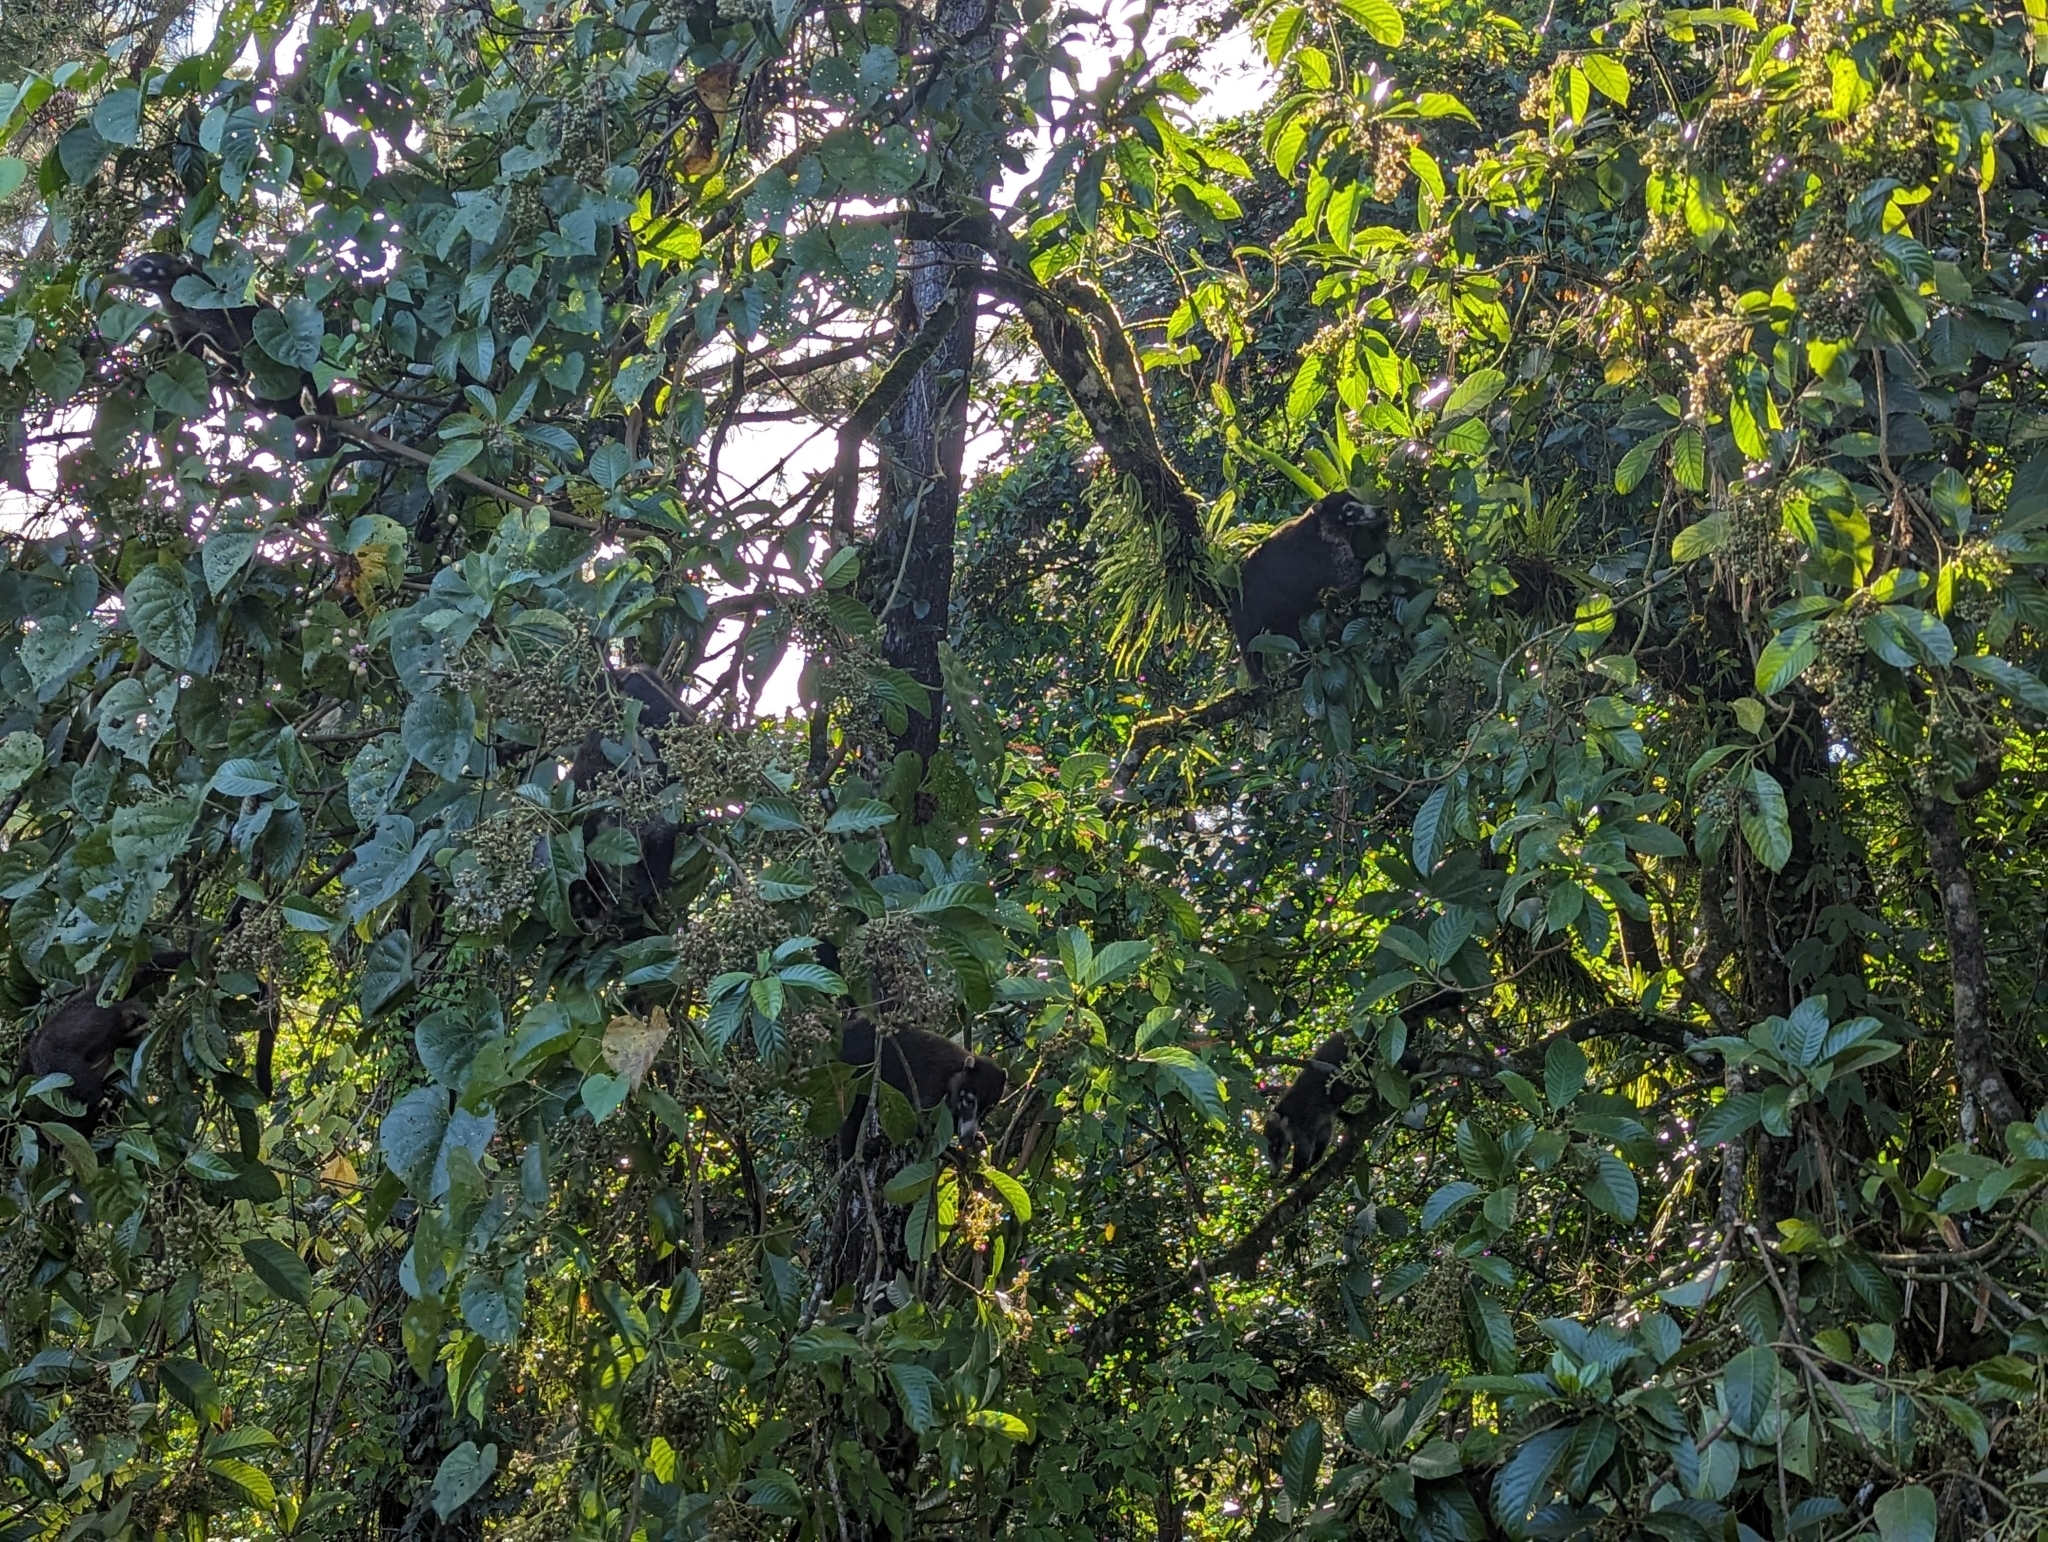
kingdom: Animalia
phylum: Chordata
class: Mammalia
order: Carnivora
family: Procyonidae
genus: Nasua
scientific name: Nasua narica
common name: White-nosed coati
